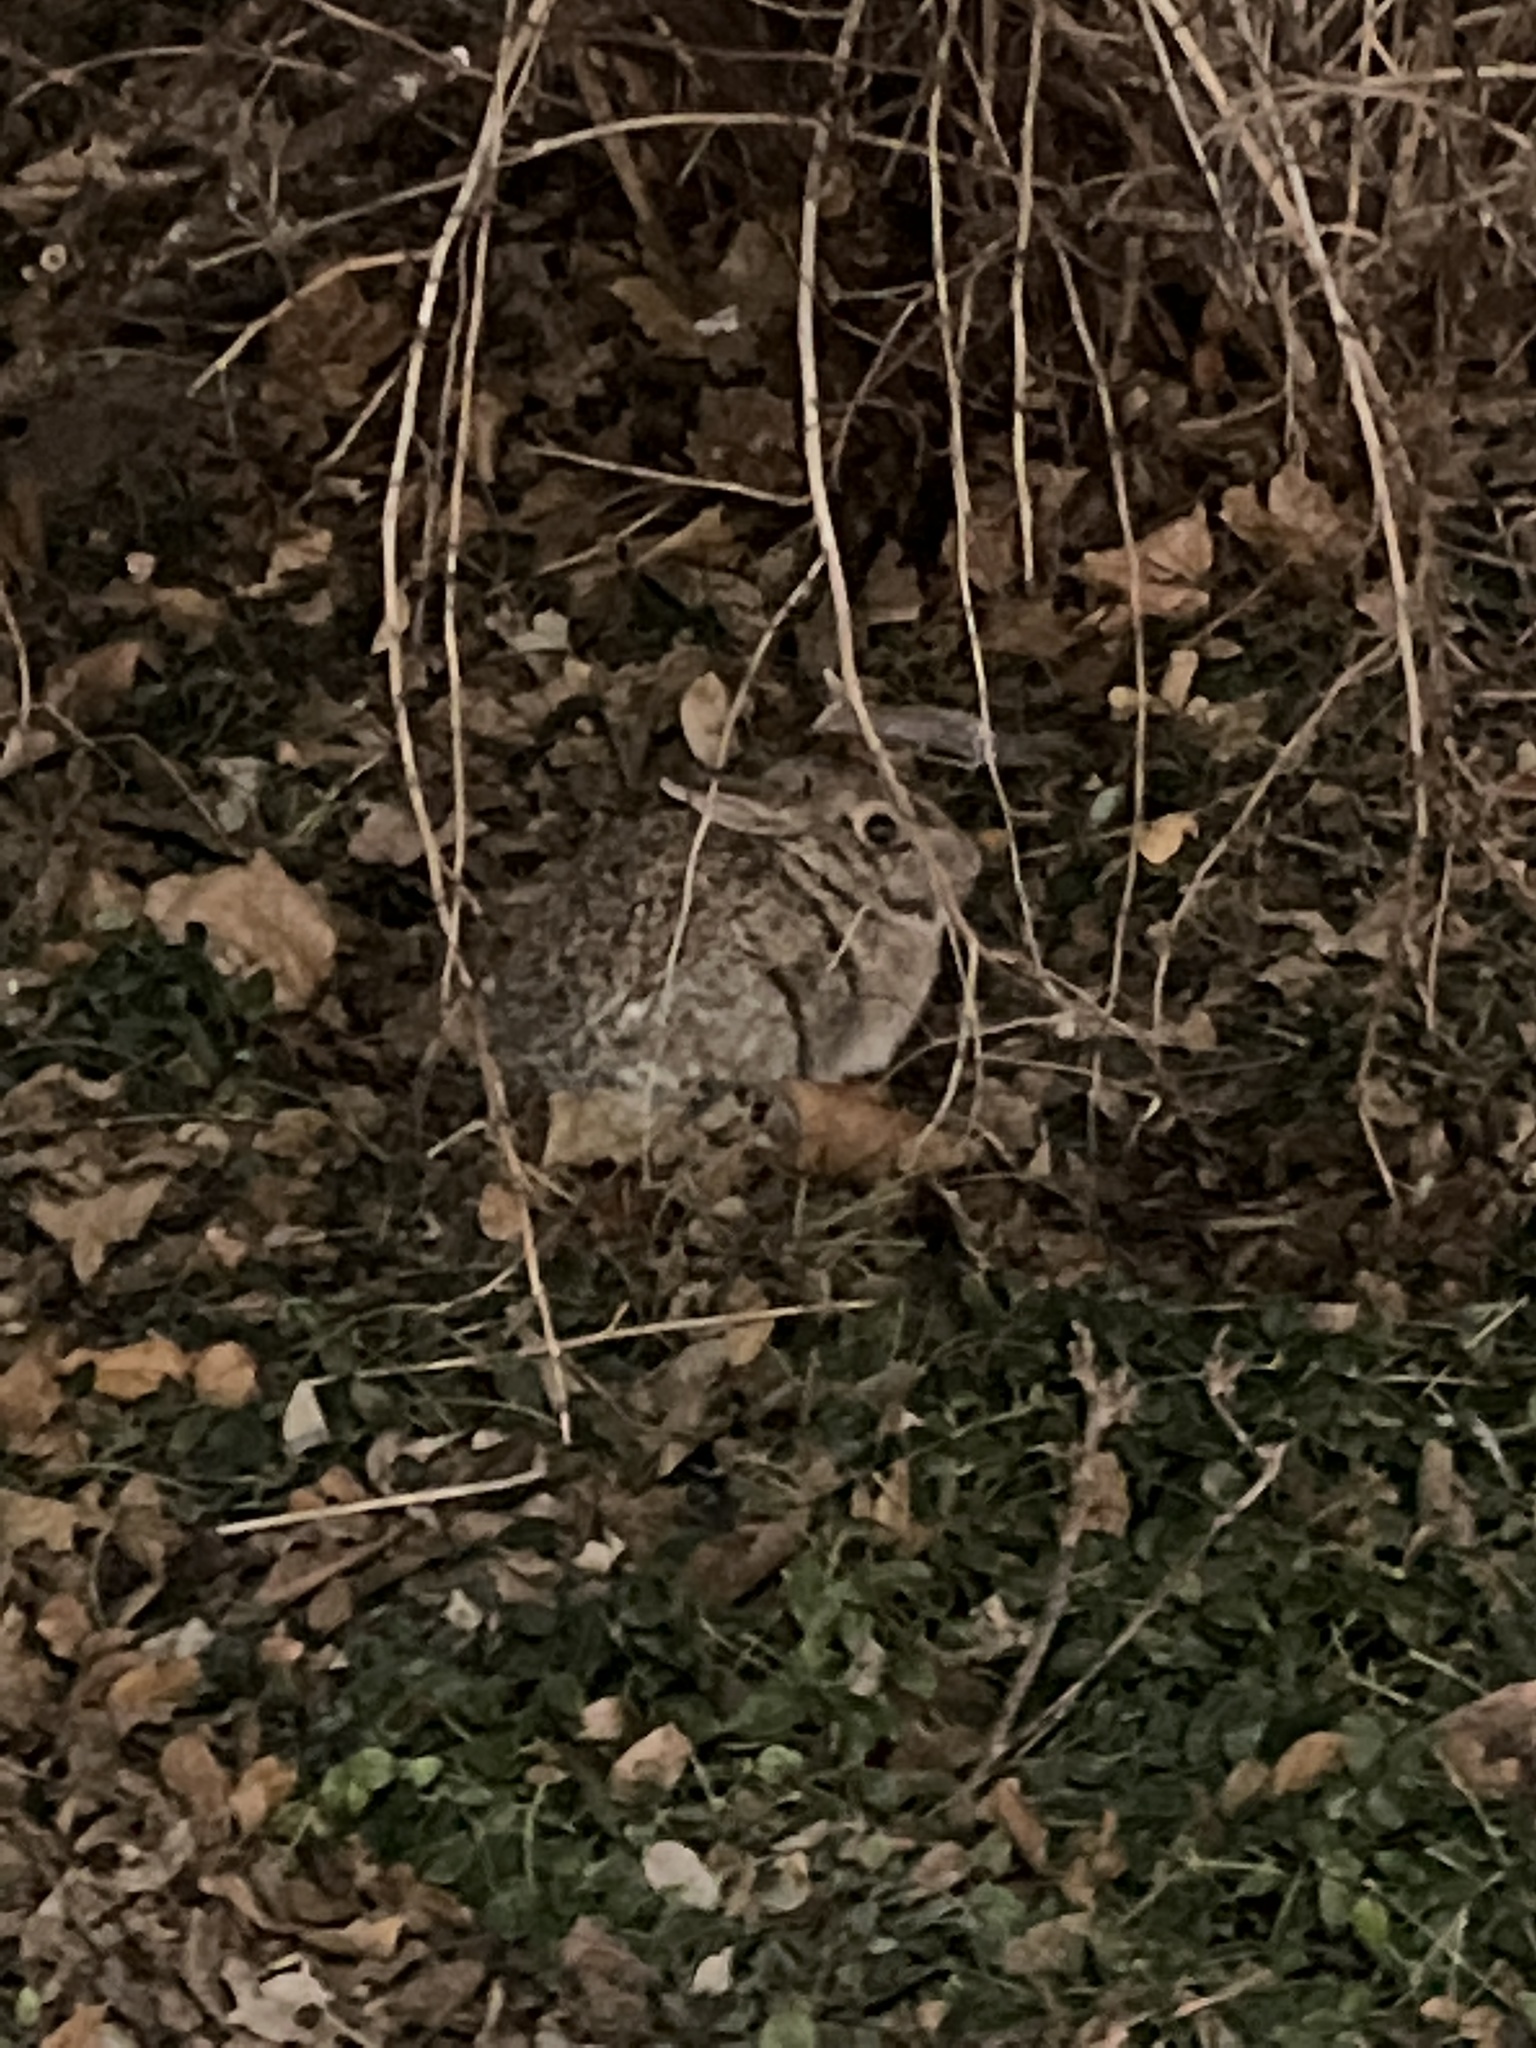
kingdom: Animalia
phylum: Chordata
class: Mammalia
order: Lagomorpha
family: Leporidae
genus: Sylvilagus
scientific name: Sylvilagus floridanus
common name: Eastern cottontail
